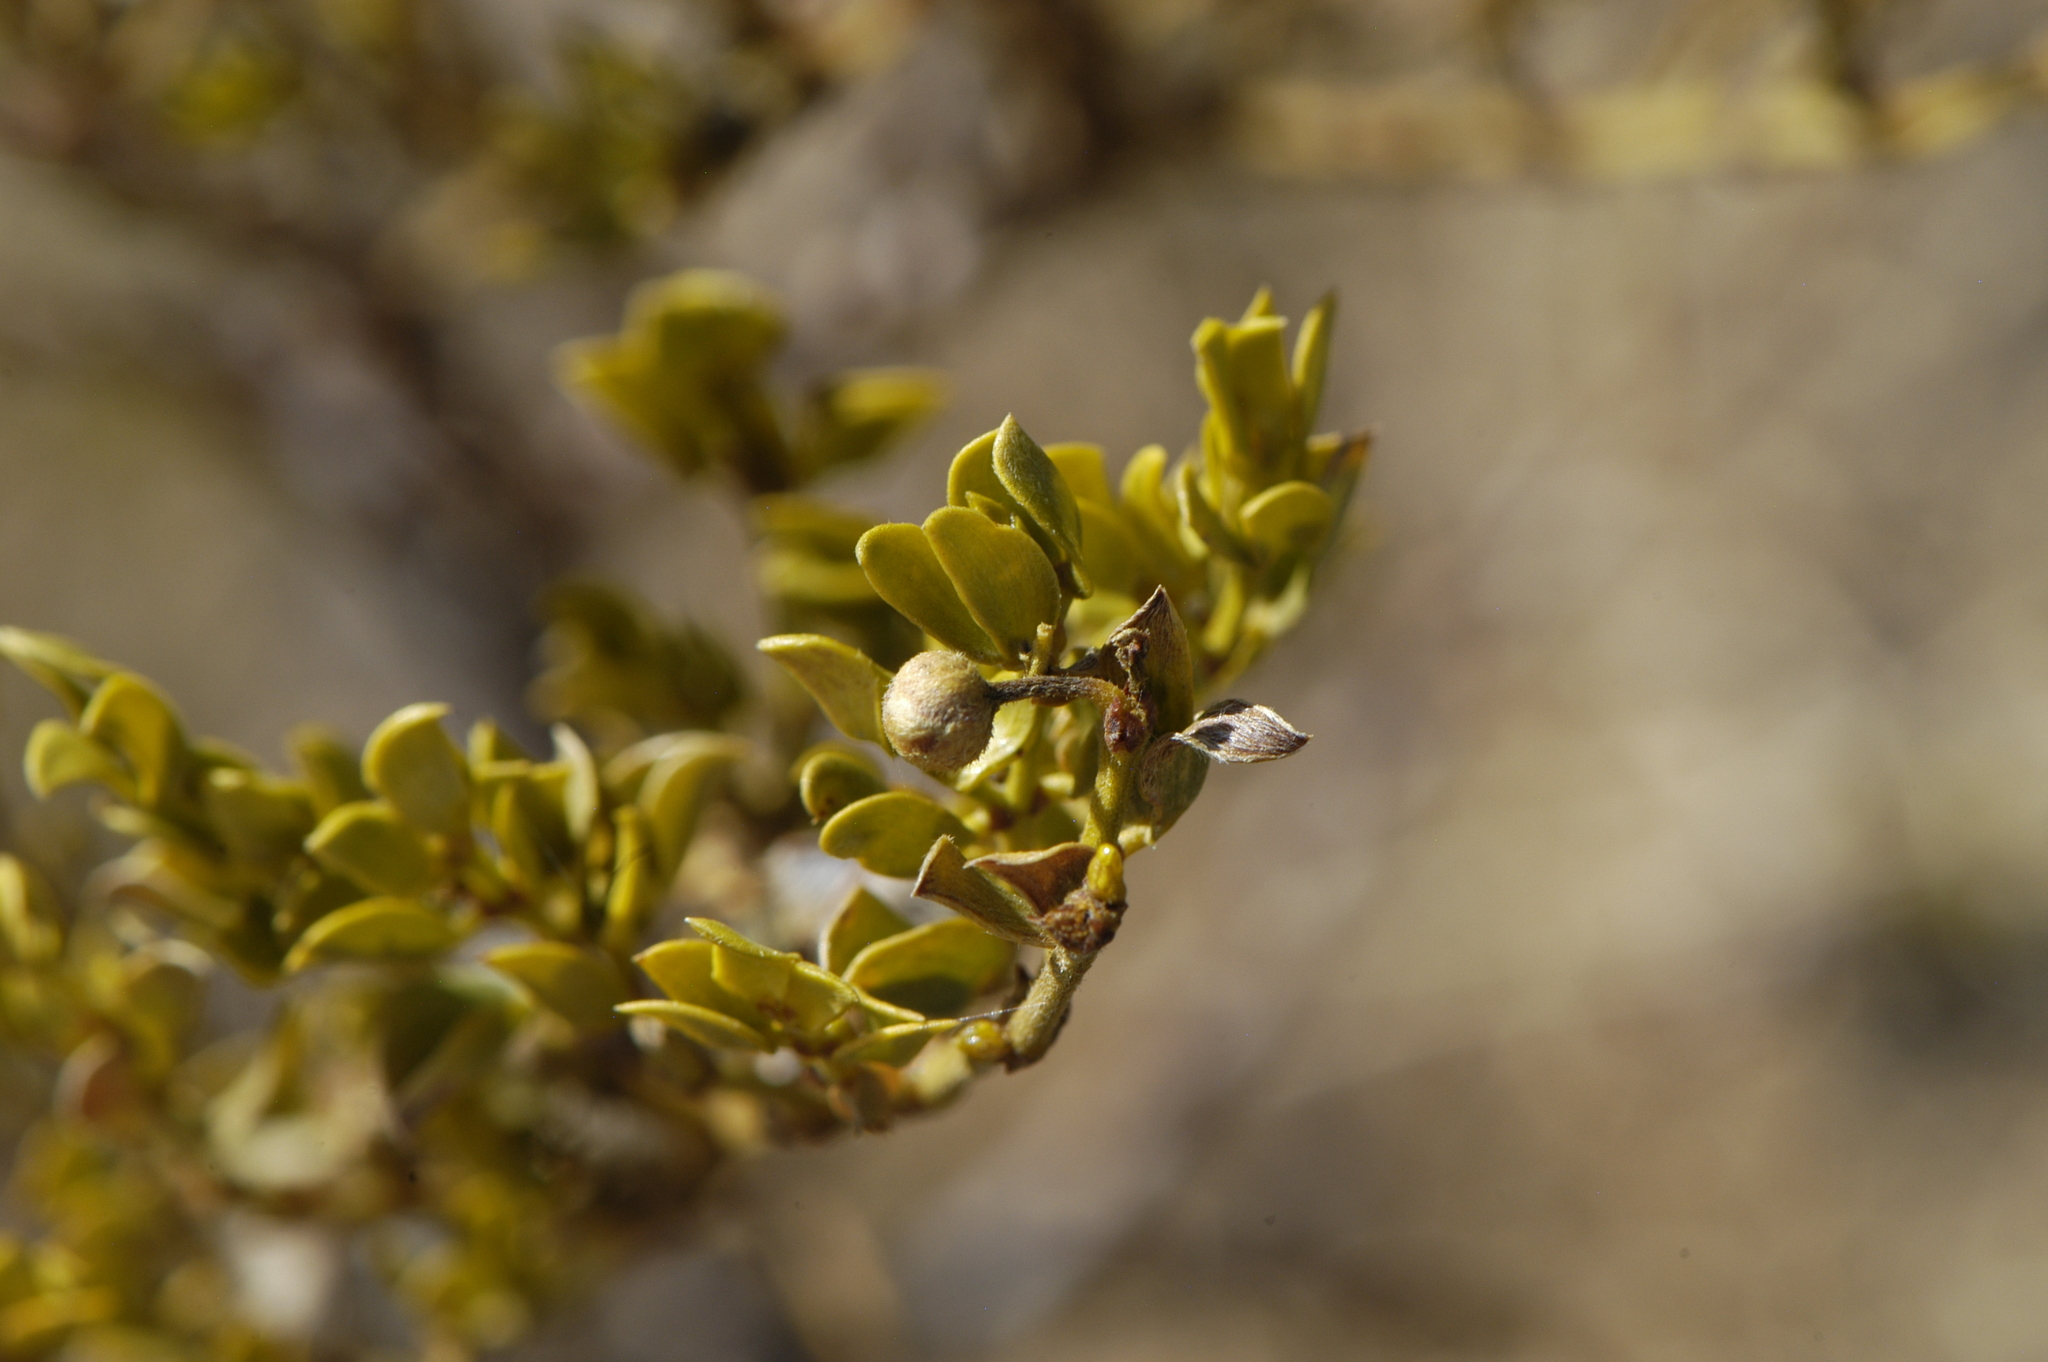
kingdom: Plantae
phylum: Tracheophyta
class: Magnoliopsida
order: Zygophyllales
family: Zygophyllaceae
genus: Larrea
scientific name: Larrea tridentata
